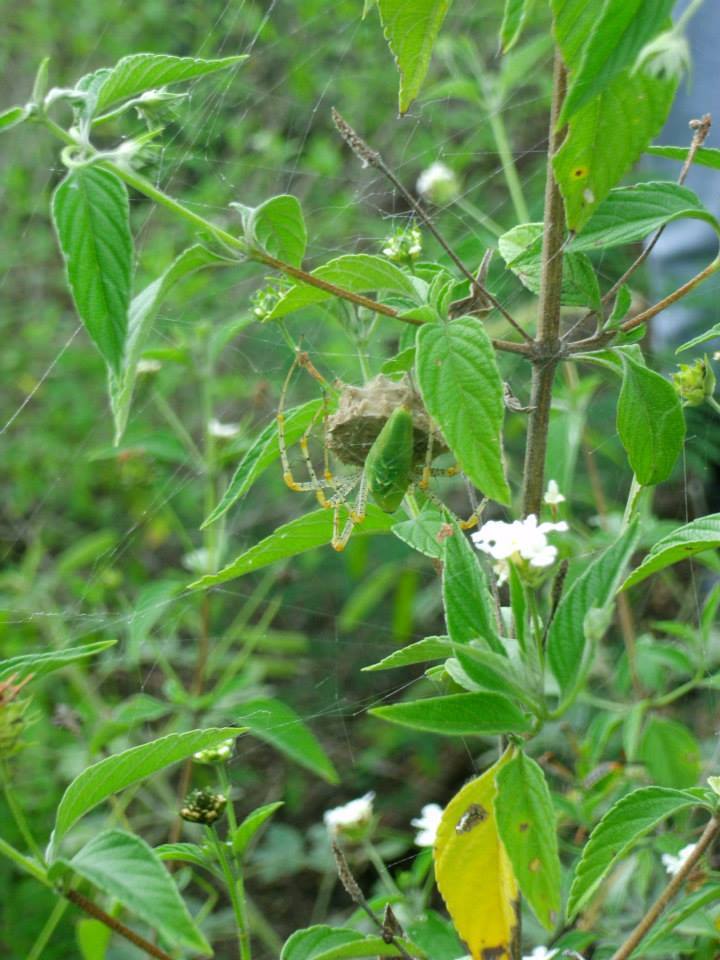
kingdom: Animalia
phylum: Arthropoda
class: Arachnida
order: Araneae
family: Oxyopidae
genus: Peucetia
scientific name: Peucetia viridans
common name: Lynx spiders
